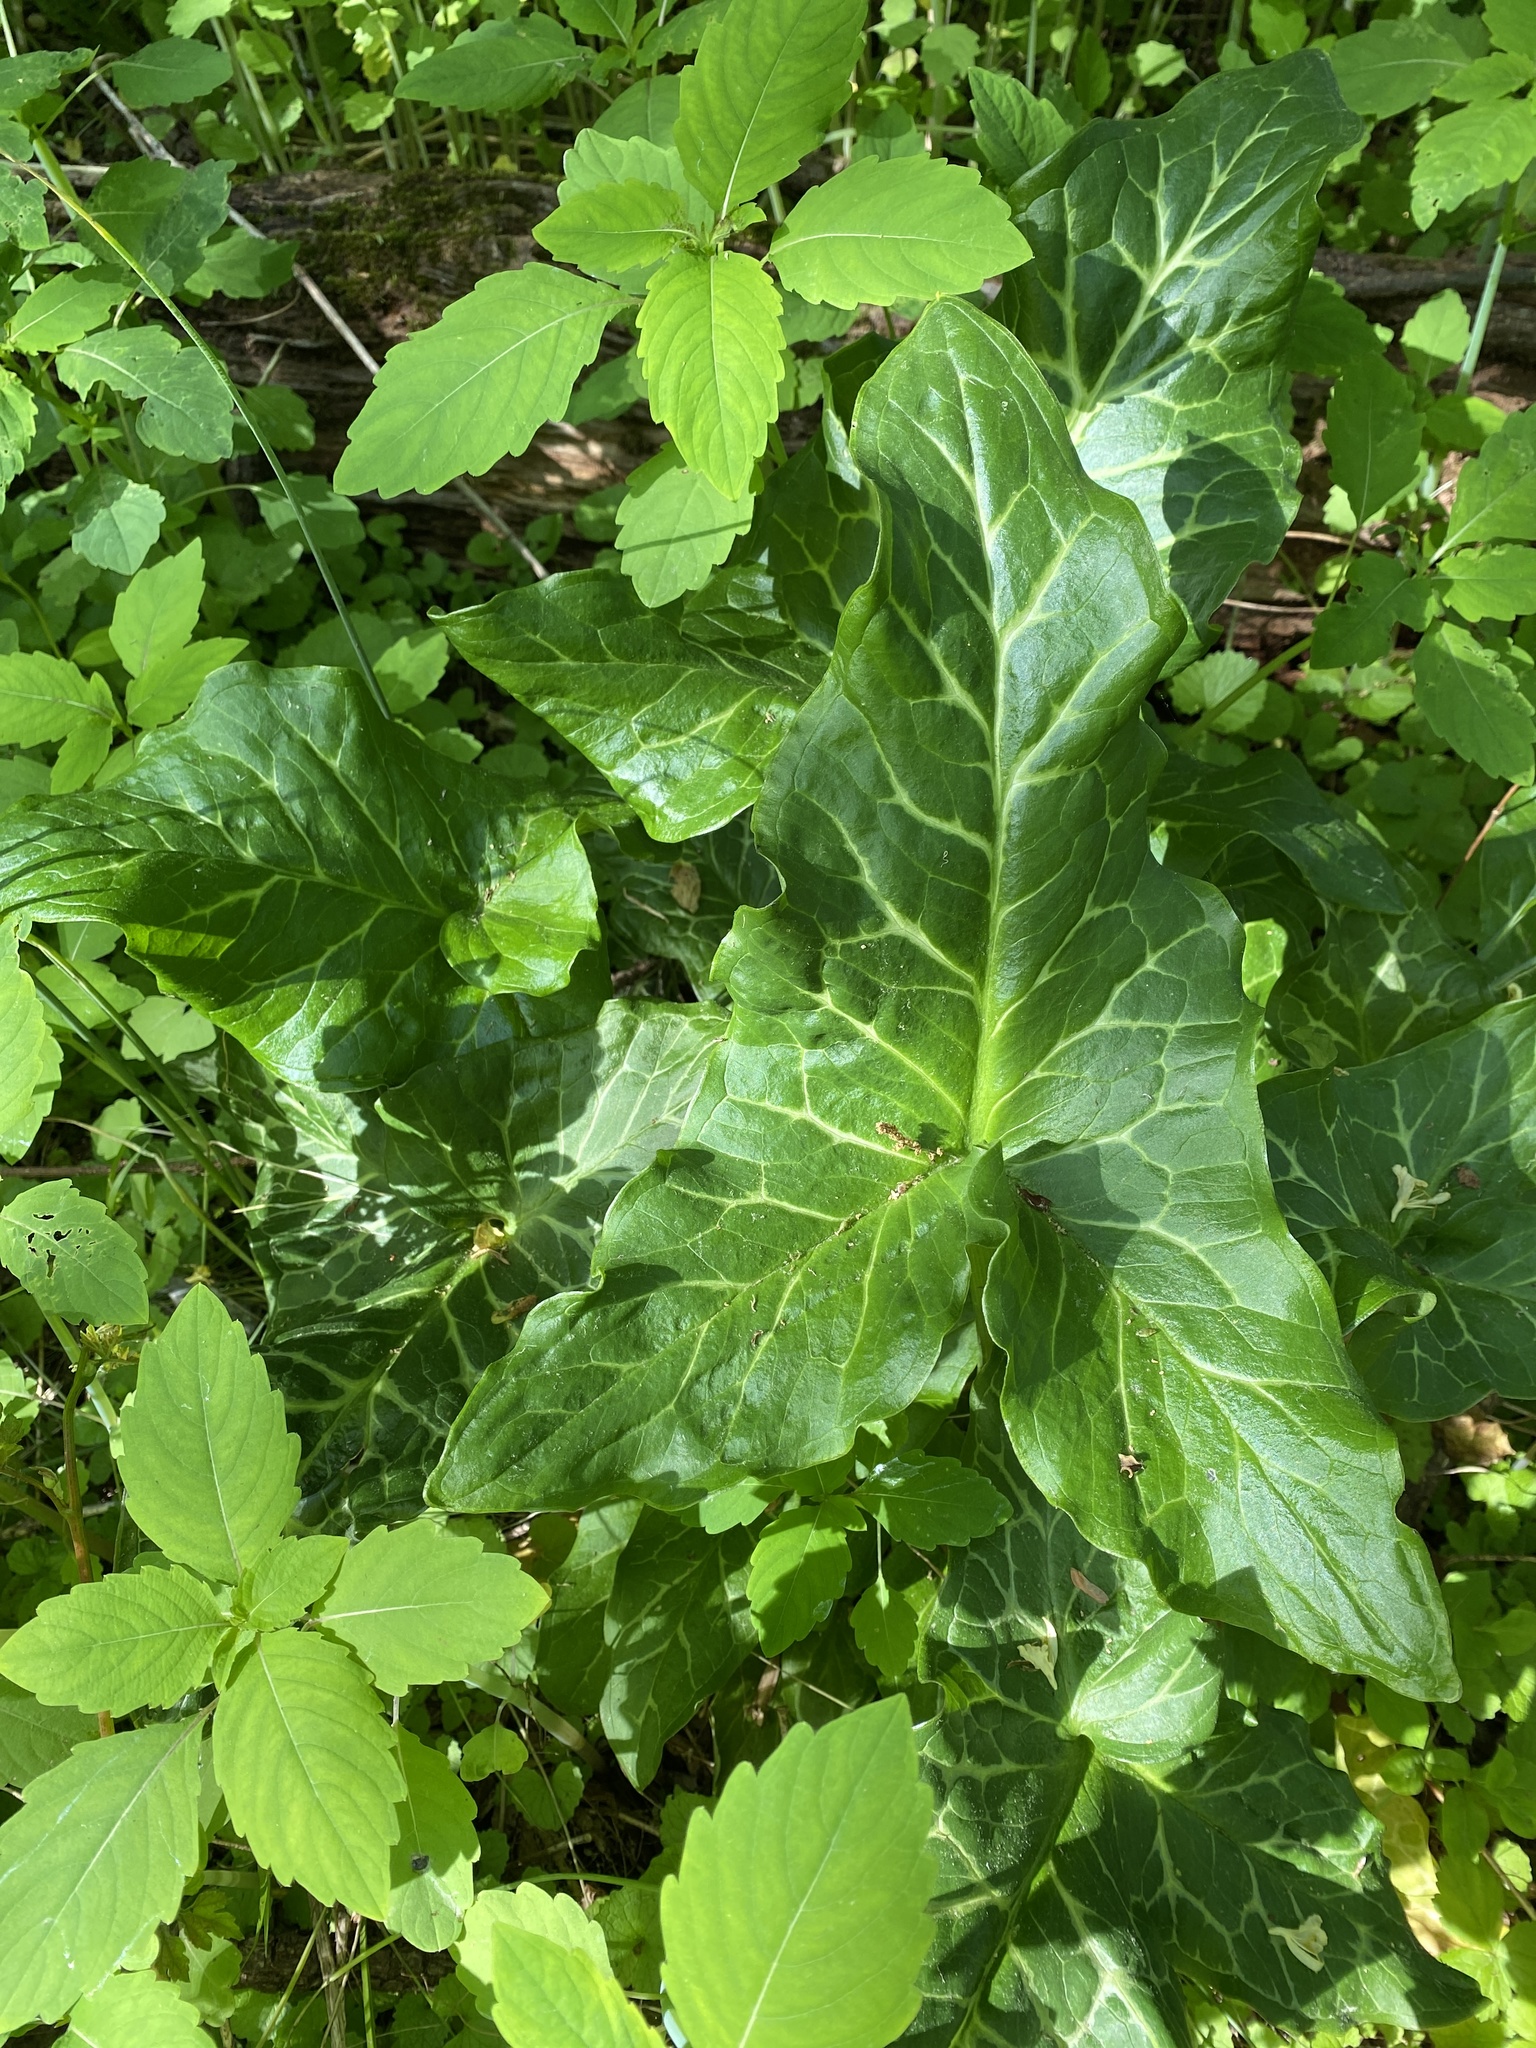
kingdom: Plantae
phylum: Tracheophyta
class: Liliopsida
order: Alismatales
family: Araceae
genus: Arum
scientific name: Arum italicum
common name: Italian lords-and-ladies
